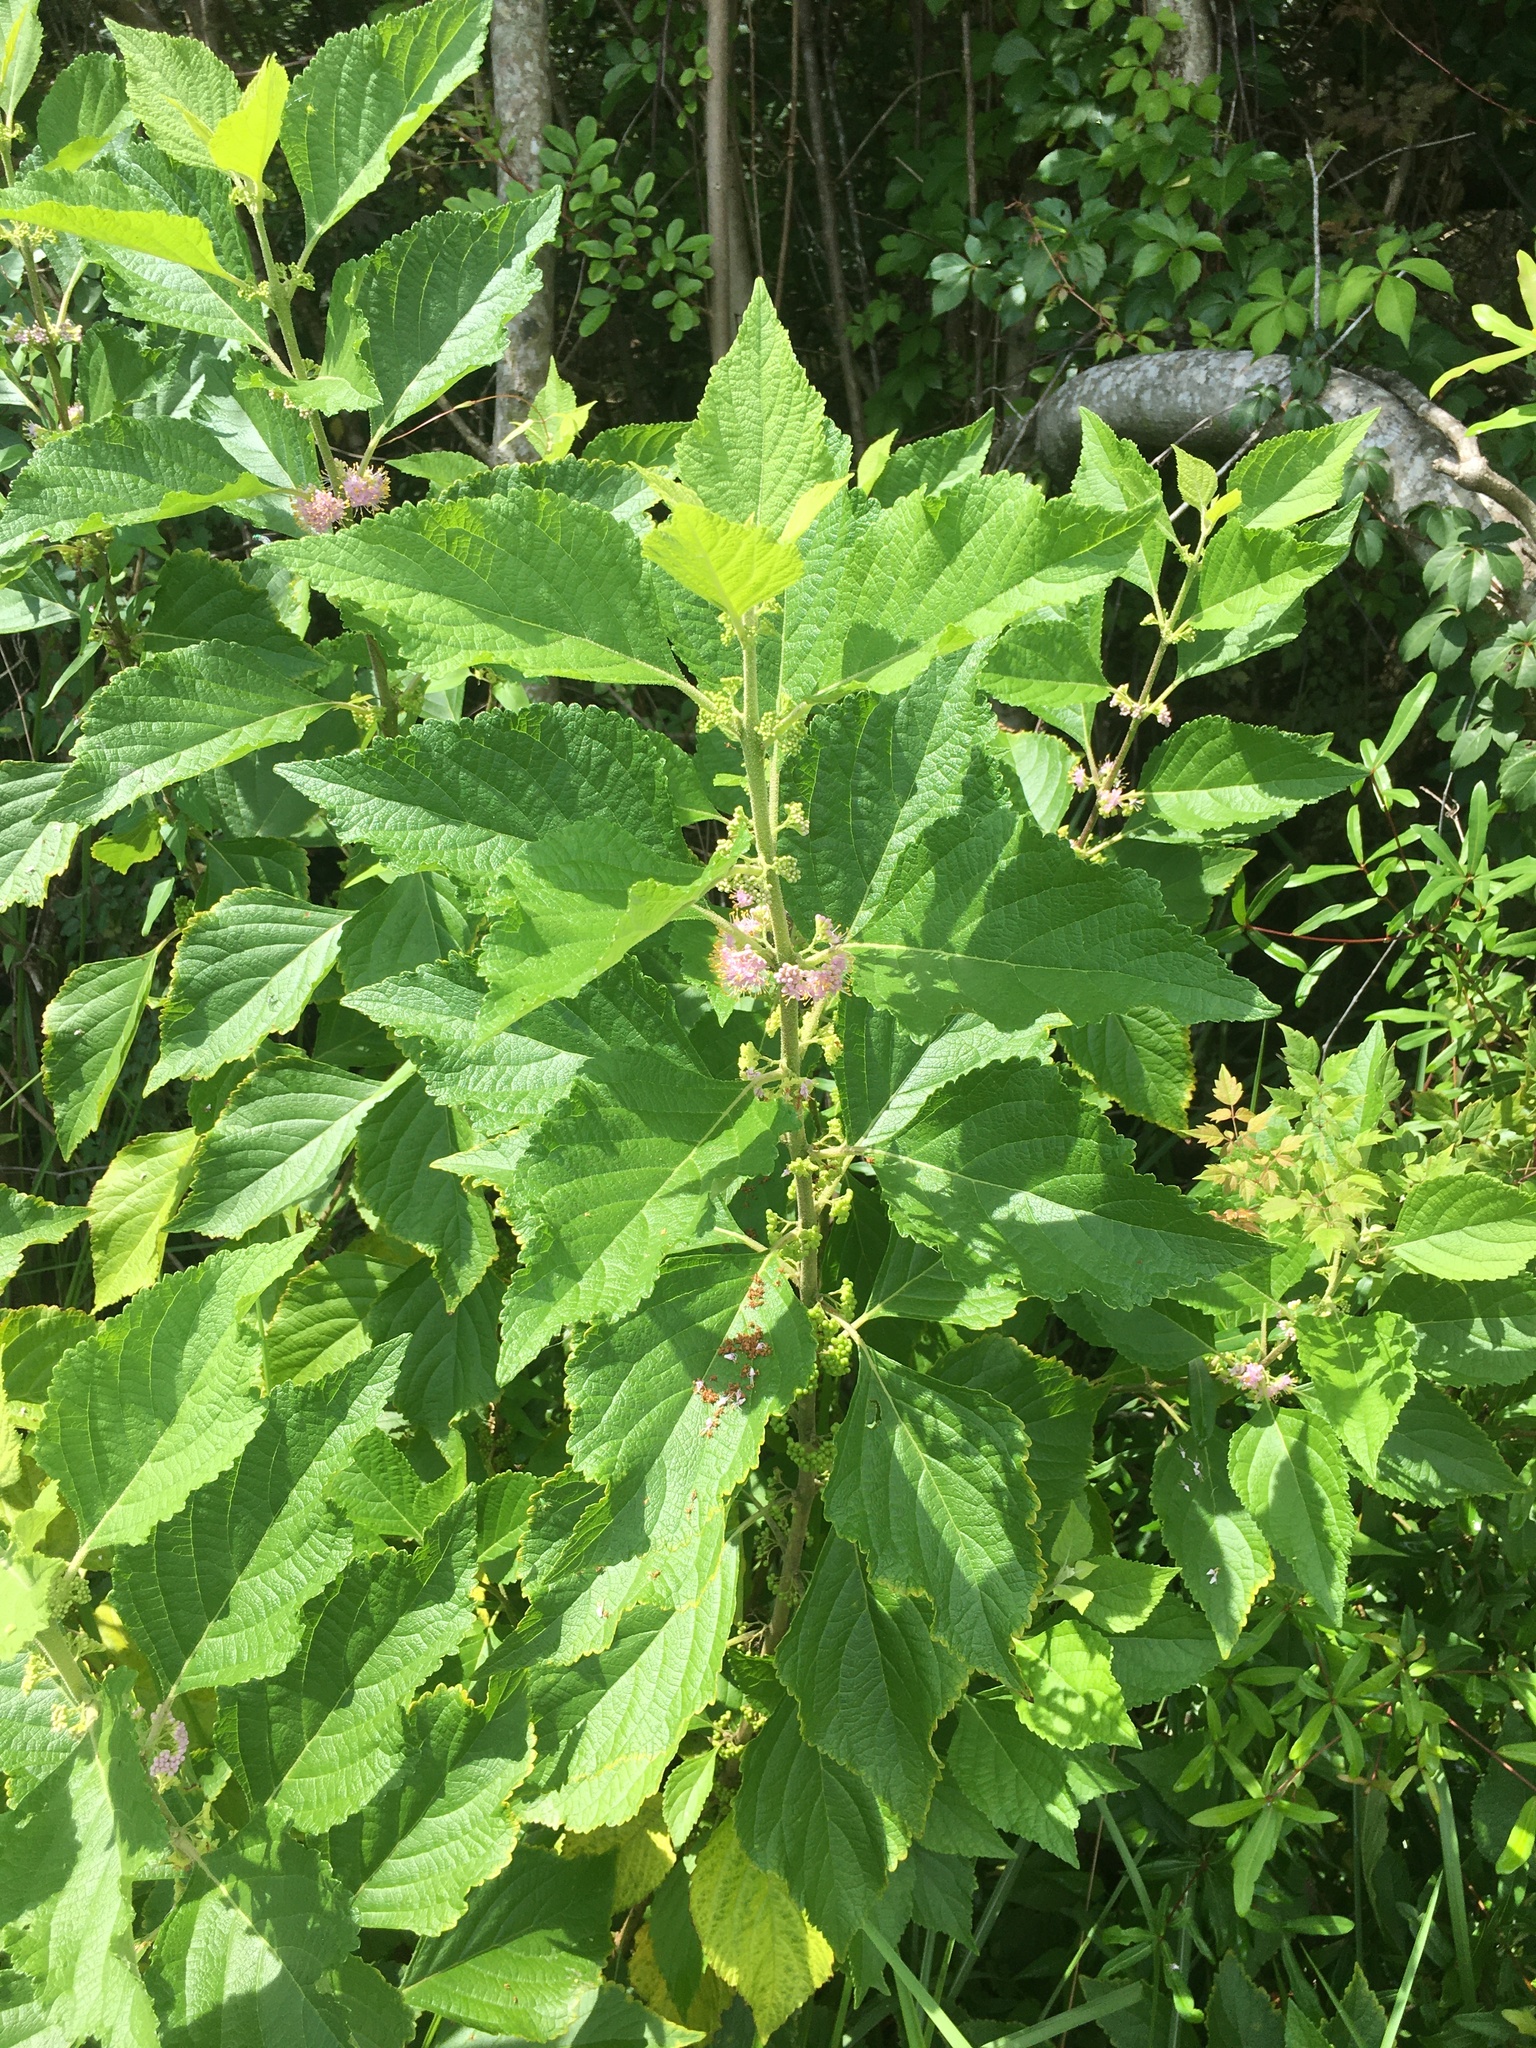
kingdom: Plantae
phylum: Tracheophyta
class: Magnoliopsida
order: Lamiales
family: Lamiaceae
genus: Callicarpa
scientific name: Callicarpa americana
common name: American beautyberry
